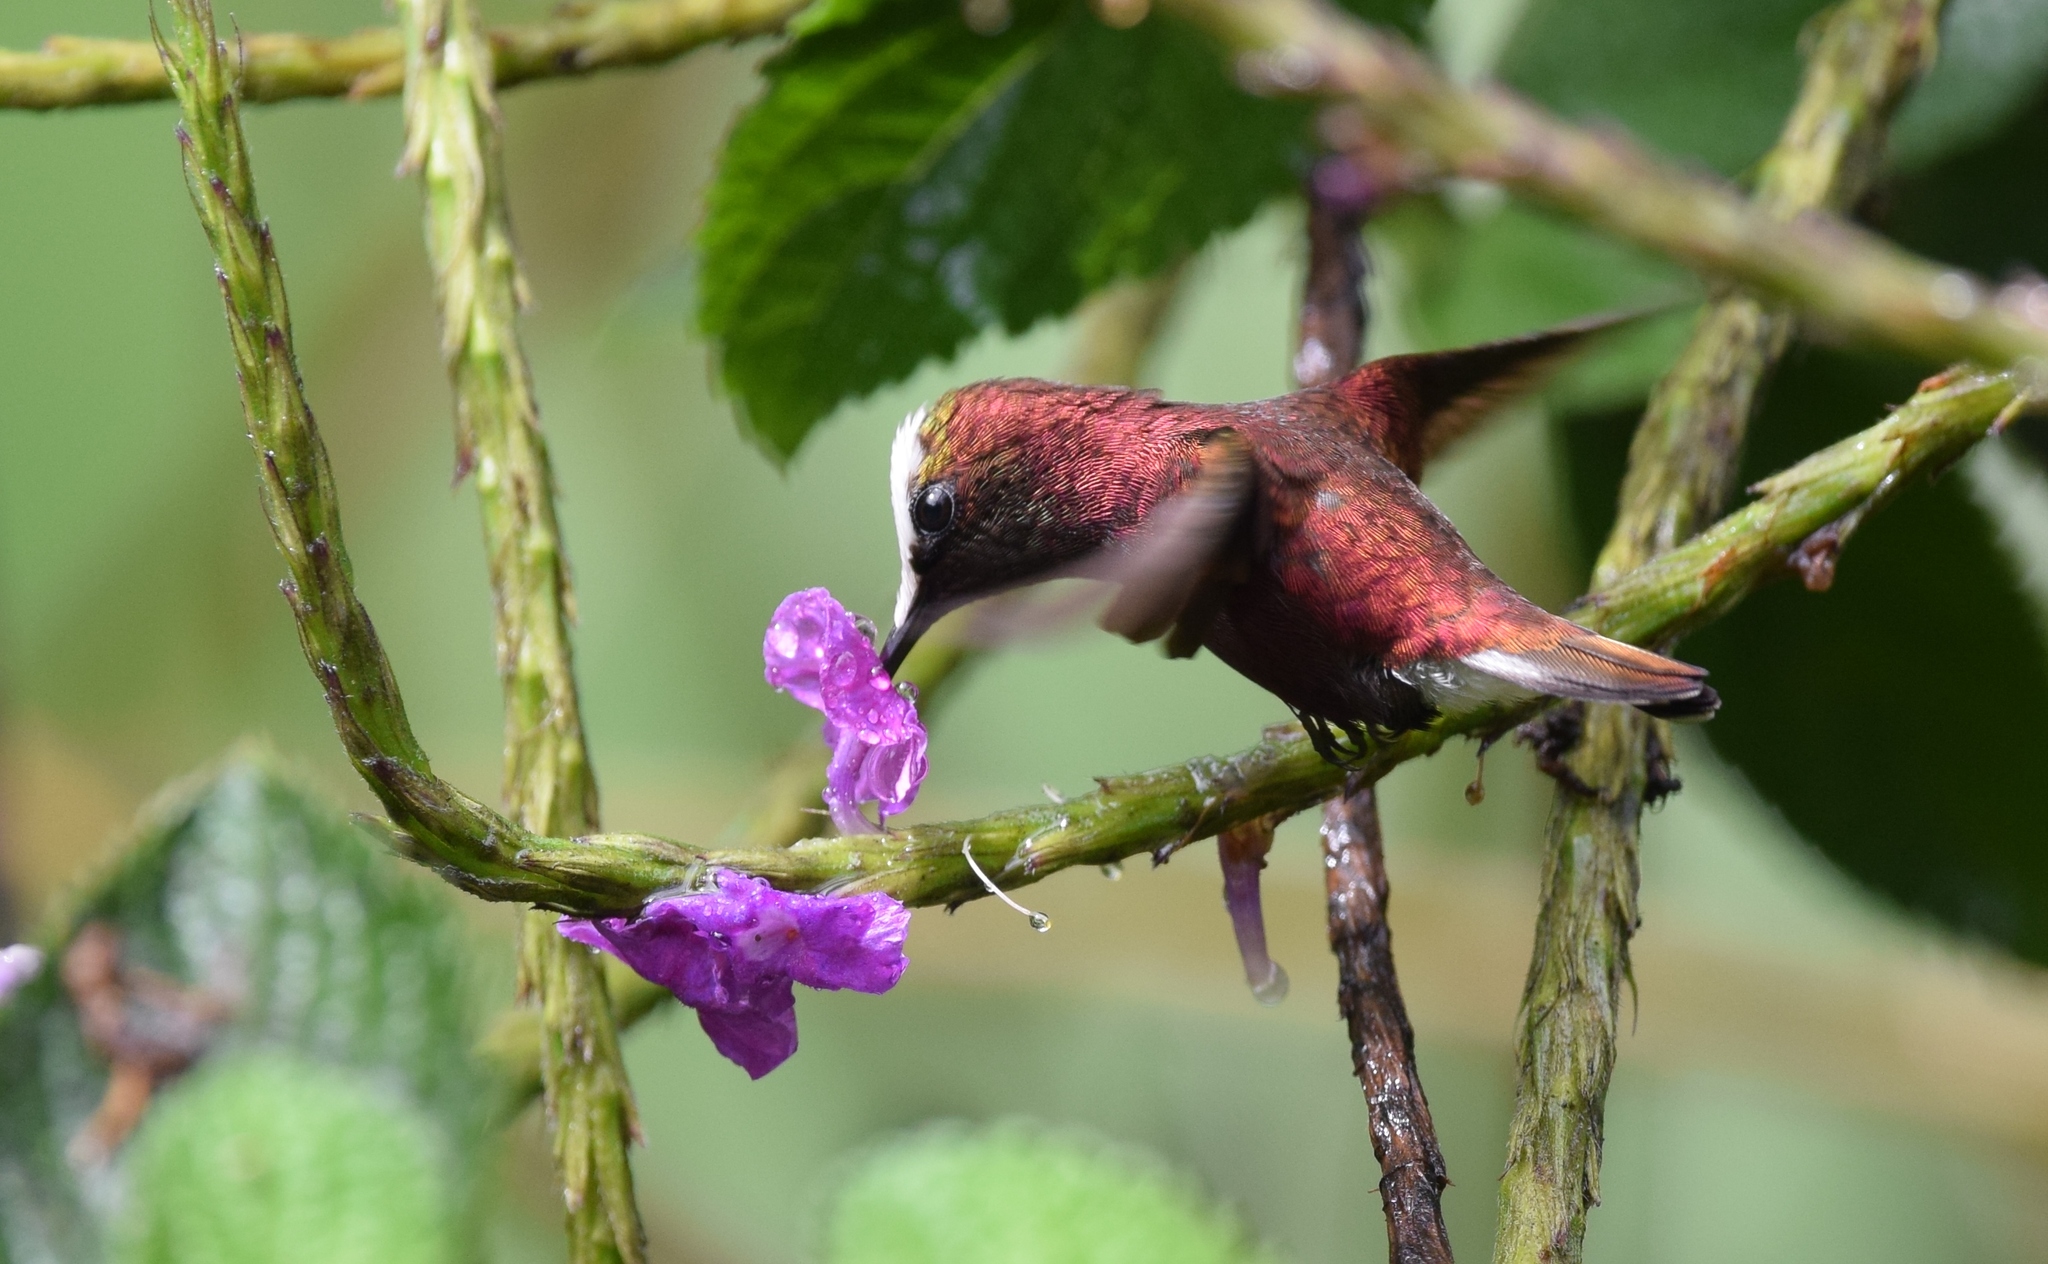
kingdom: Animalia
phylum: Chordata
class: Aves
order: Apodiformes
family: Trochilidae
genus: Microchera
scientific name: Microchera albocoronata
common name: Snowcap
